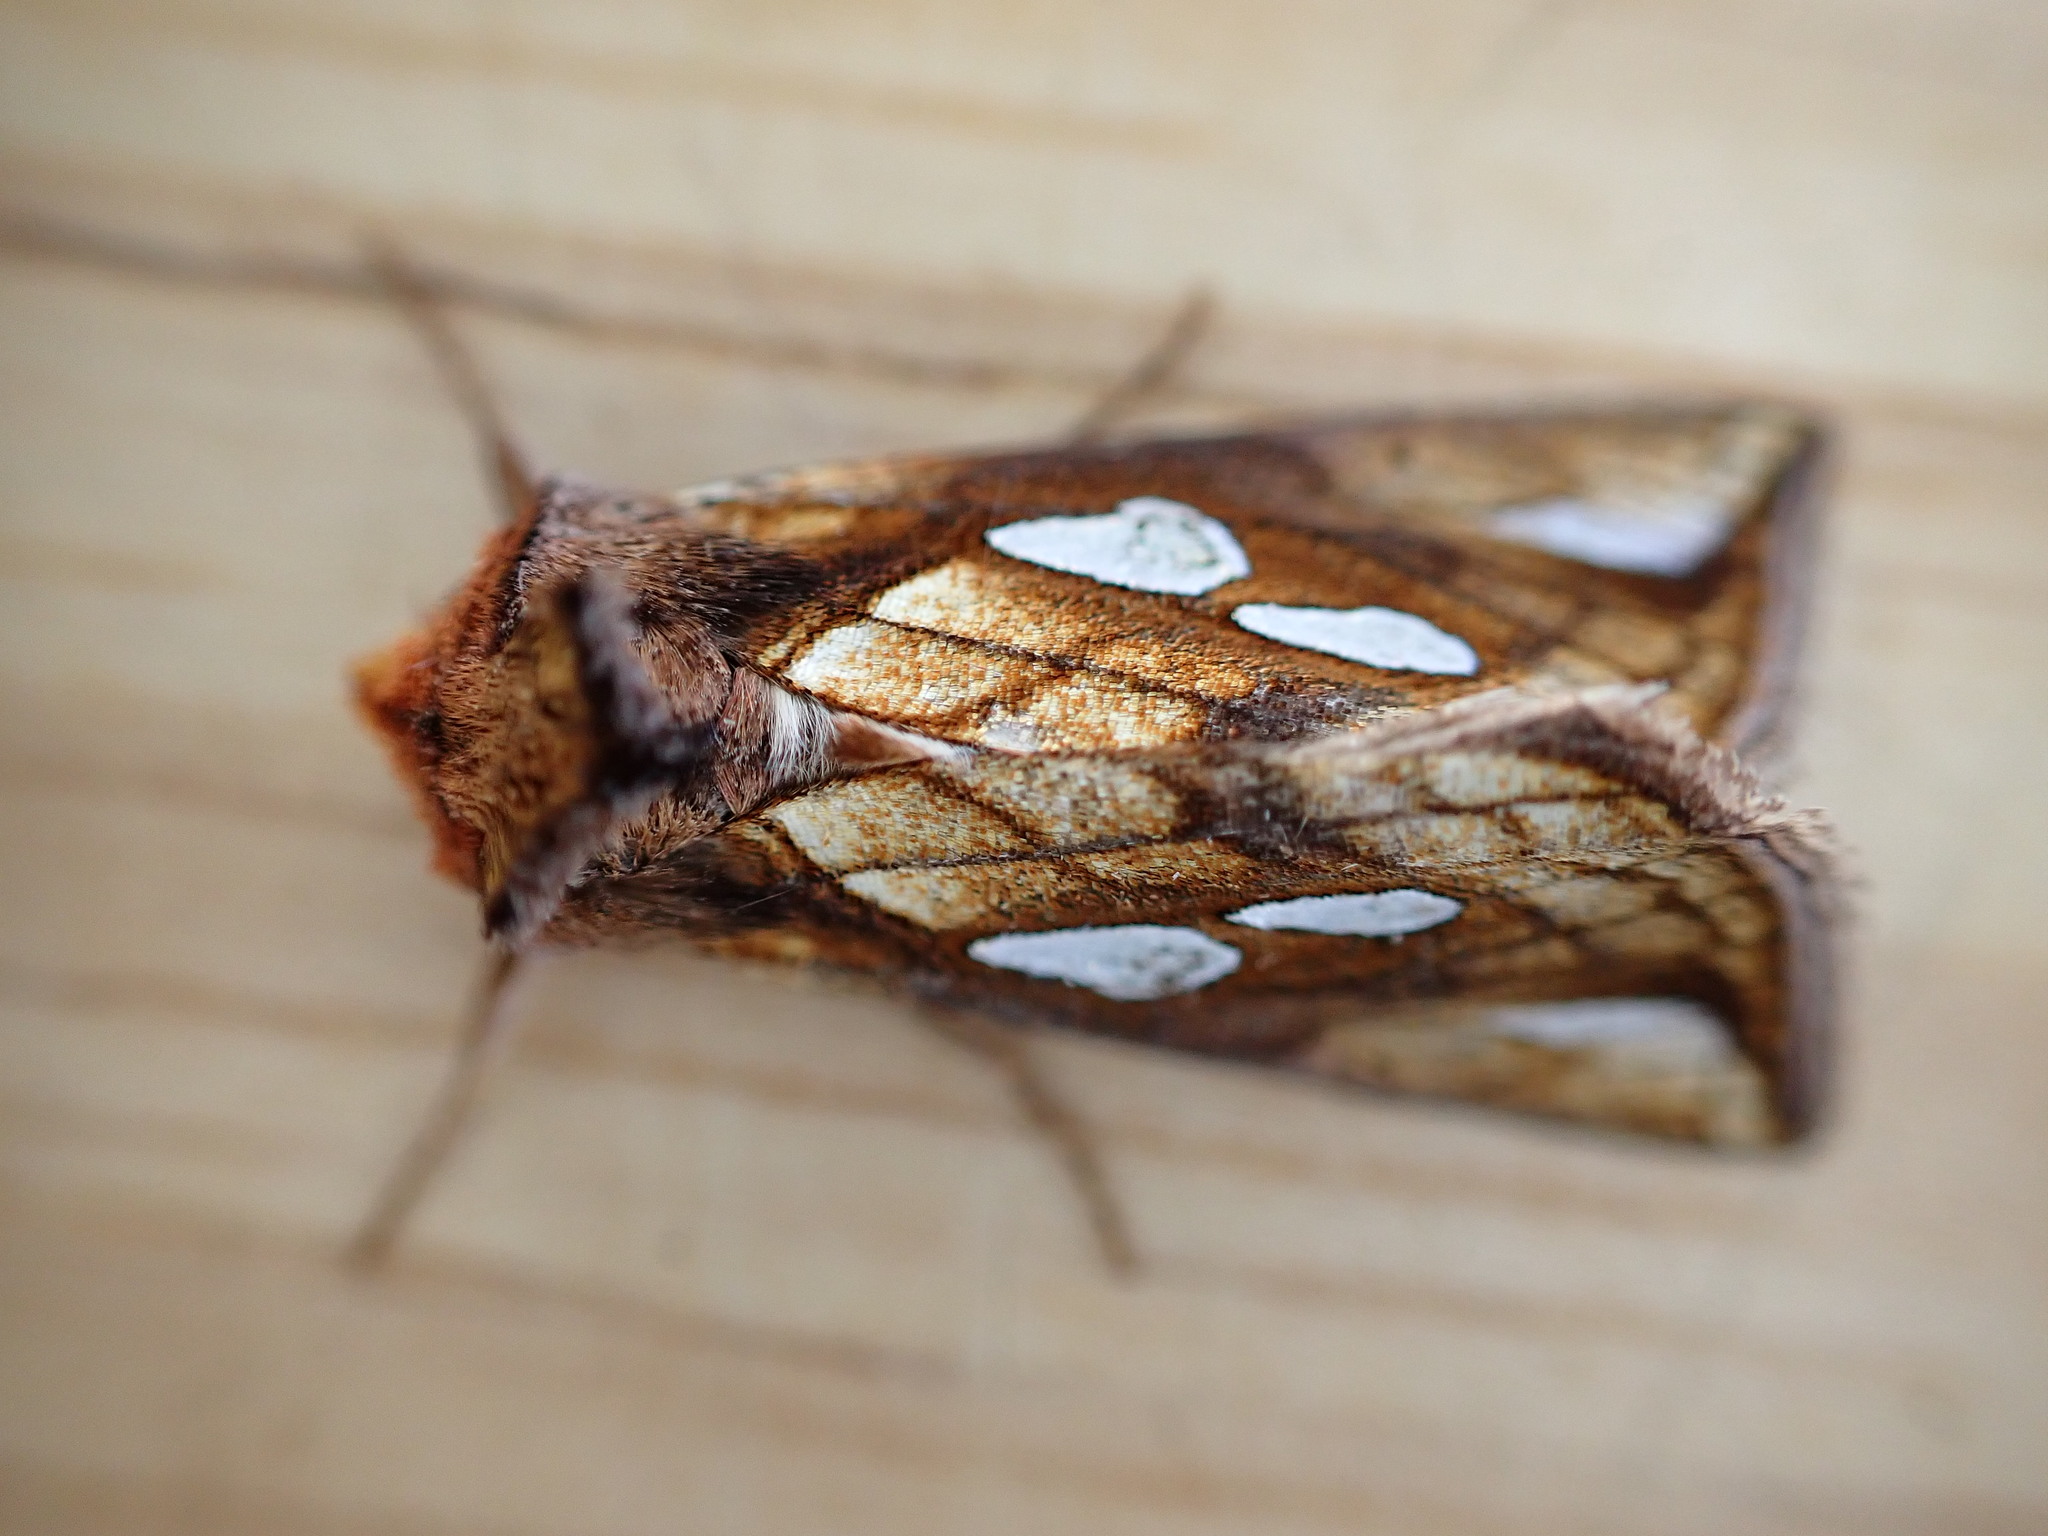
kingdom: Animalia
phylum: Arthropoda
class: Insecta
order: Lepidoptera
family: Noctuidae
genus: Plusia
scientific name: Plusia festucae
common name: Gold spot
